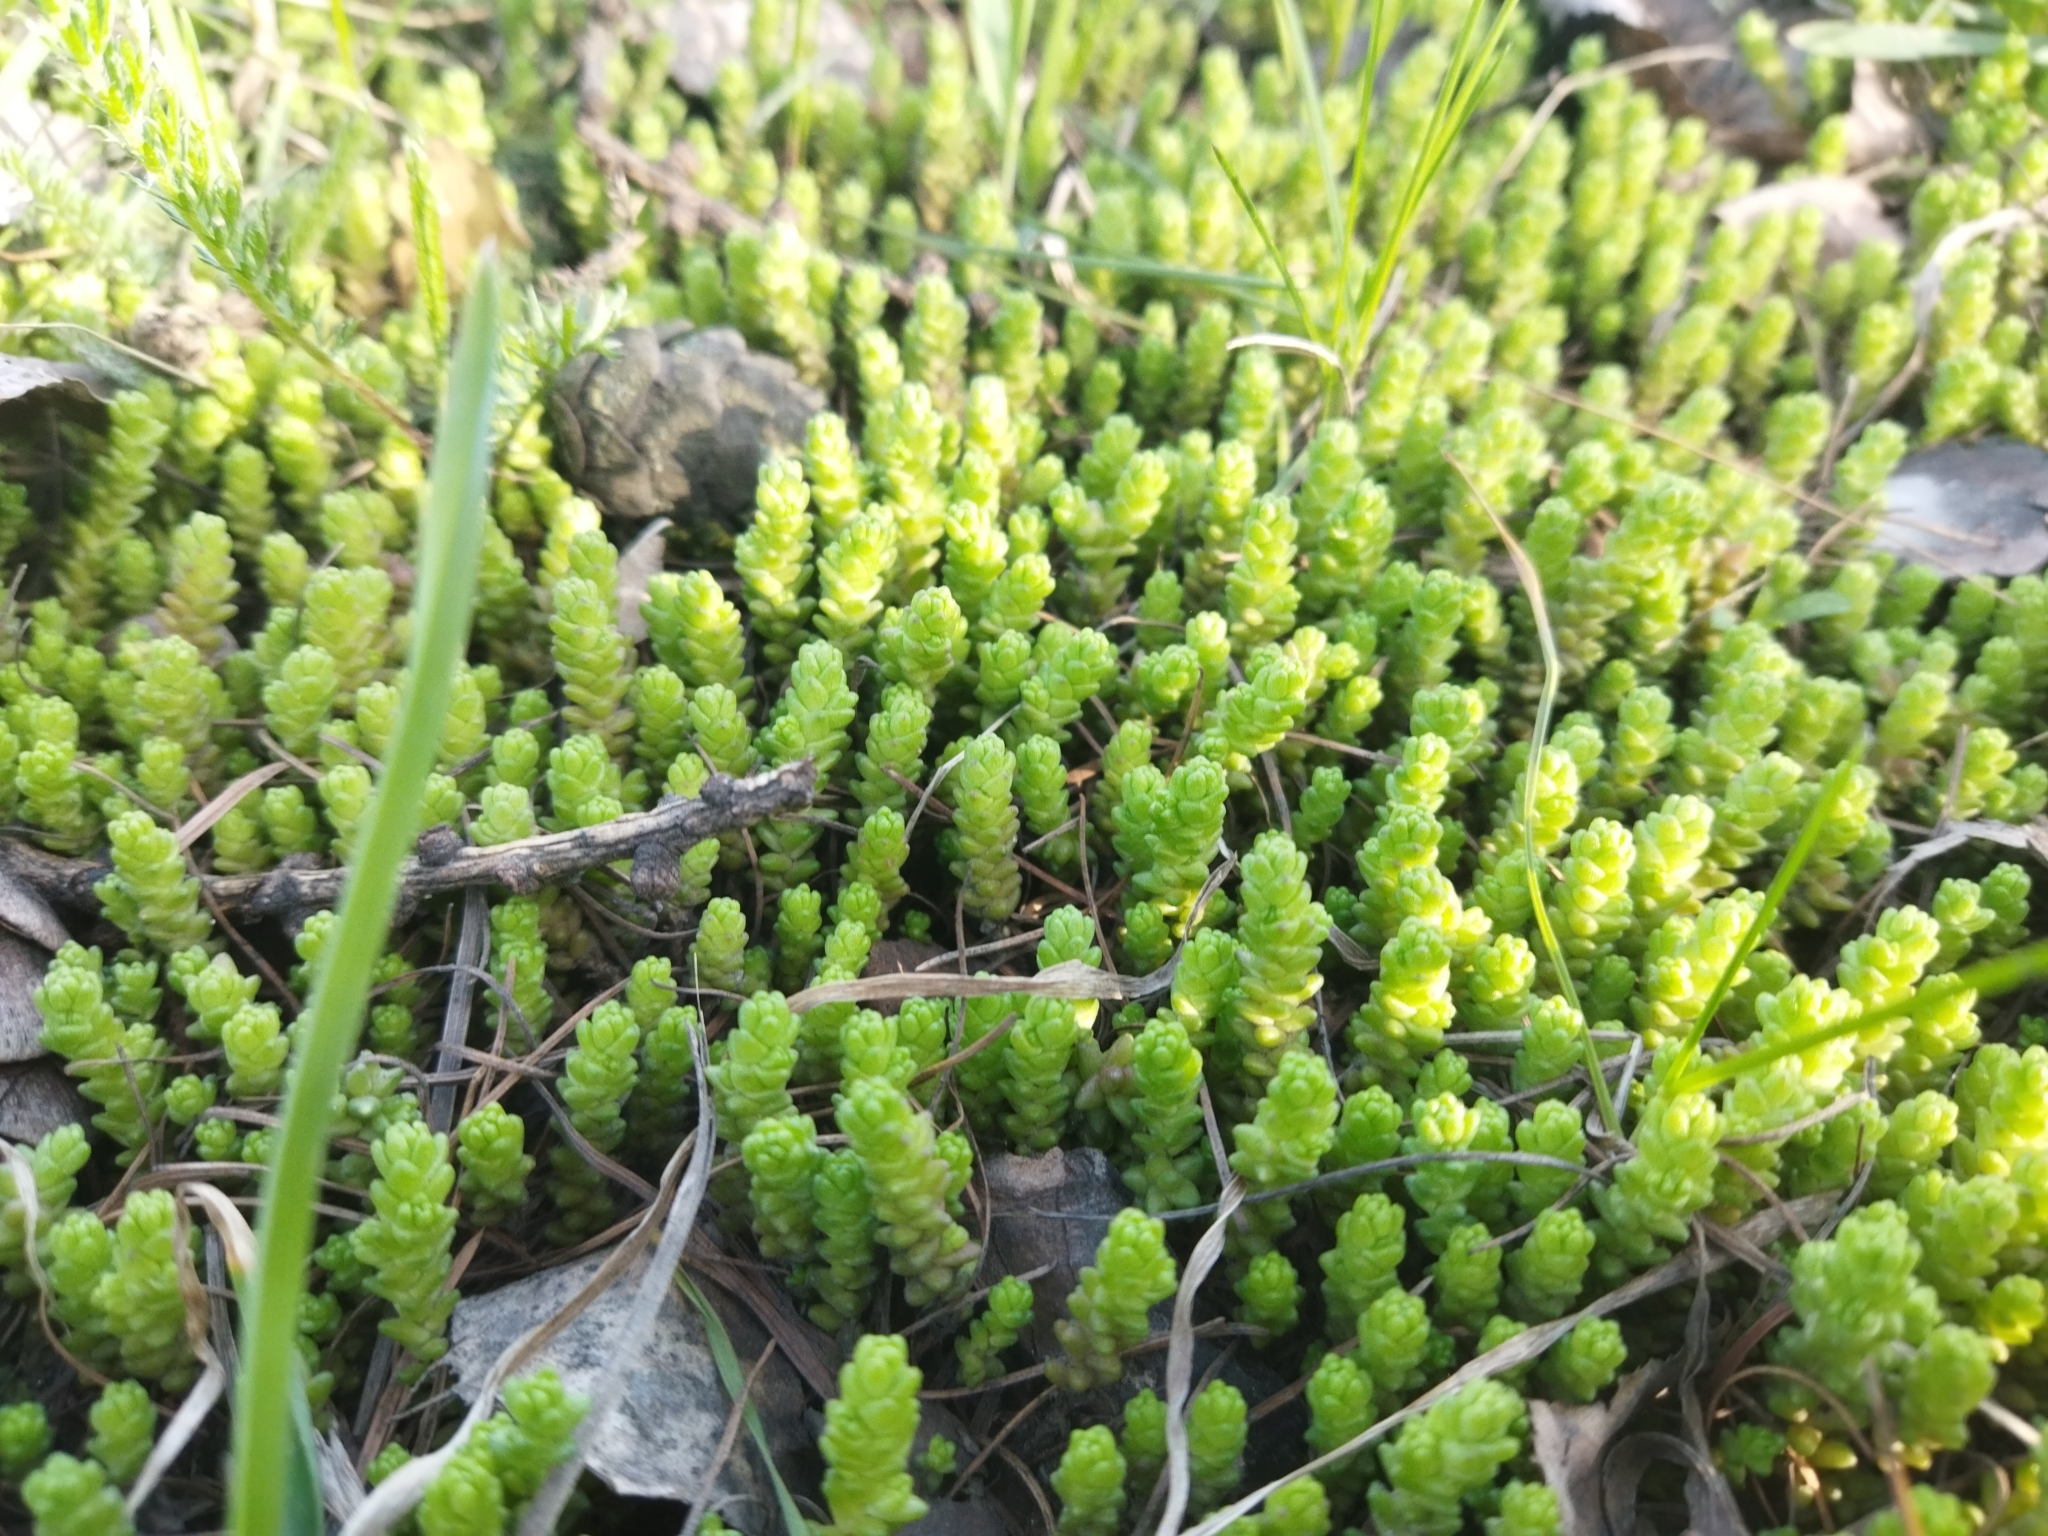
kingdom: Plantae
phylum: Tracheophyta
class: Magnoliopsida
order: Saxifragales
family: Crassulaceae
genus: Sedum
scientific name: Sedum acre
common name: Biting stonecrop
